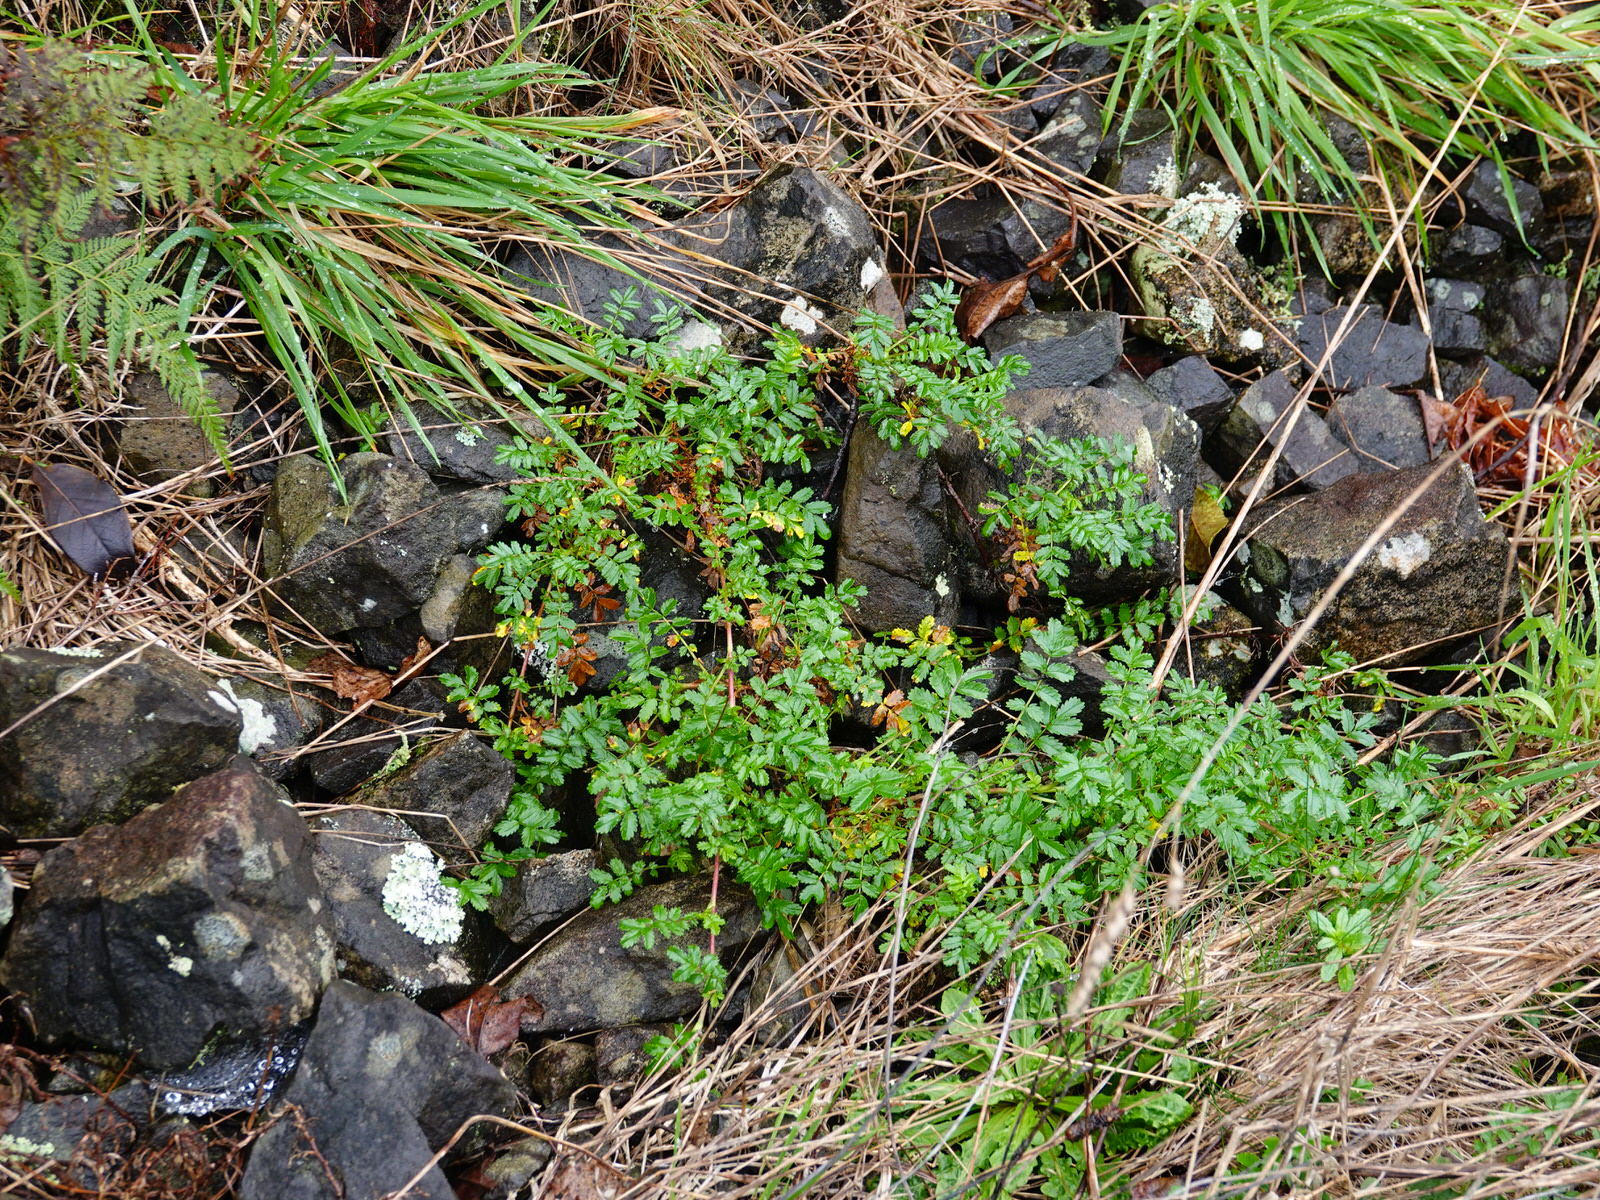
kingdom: Plantae
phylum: Tracheophyta
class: Magnoliopsida
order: Rosales
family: Rosaceae
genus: Acaena
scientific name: Acaena novae-zelandiae
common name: Pirri-pirri-bur
